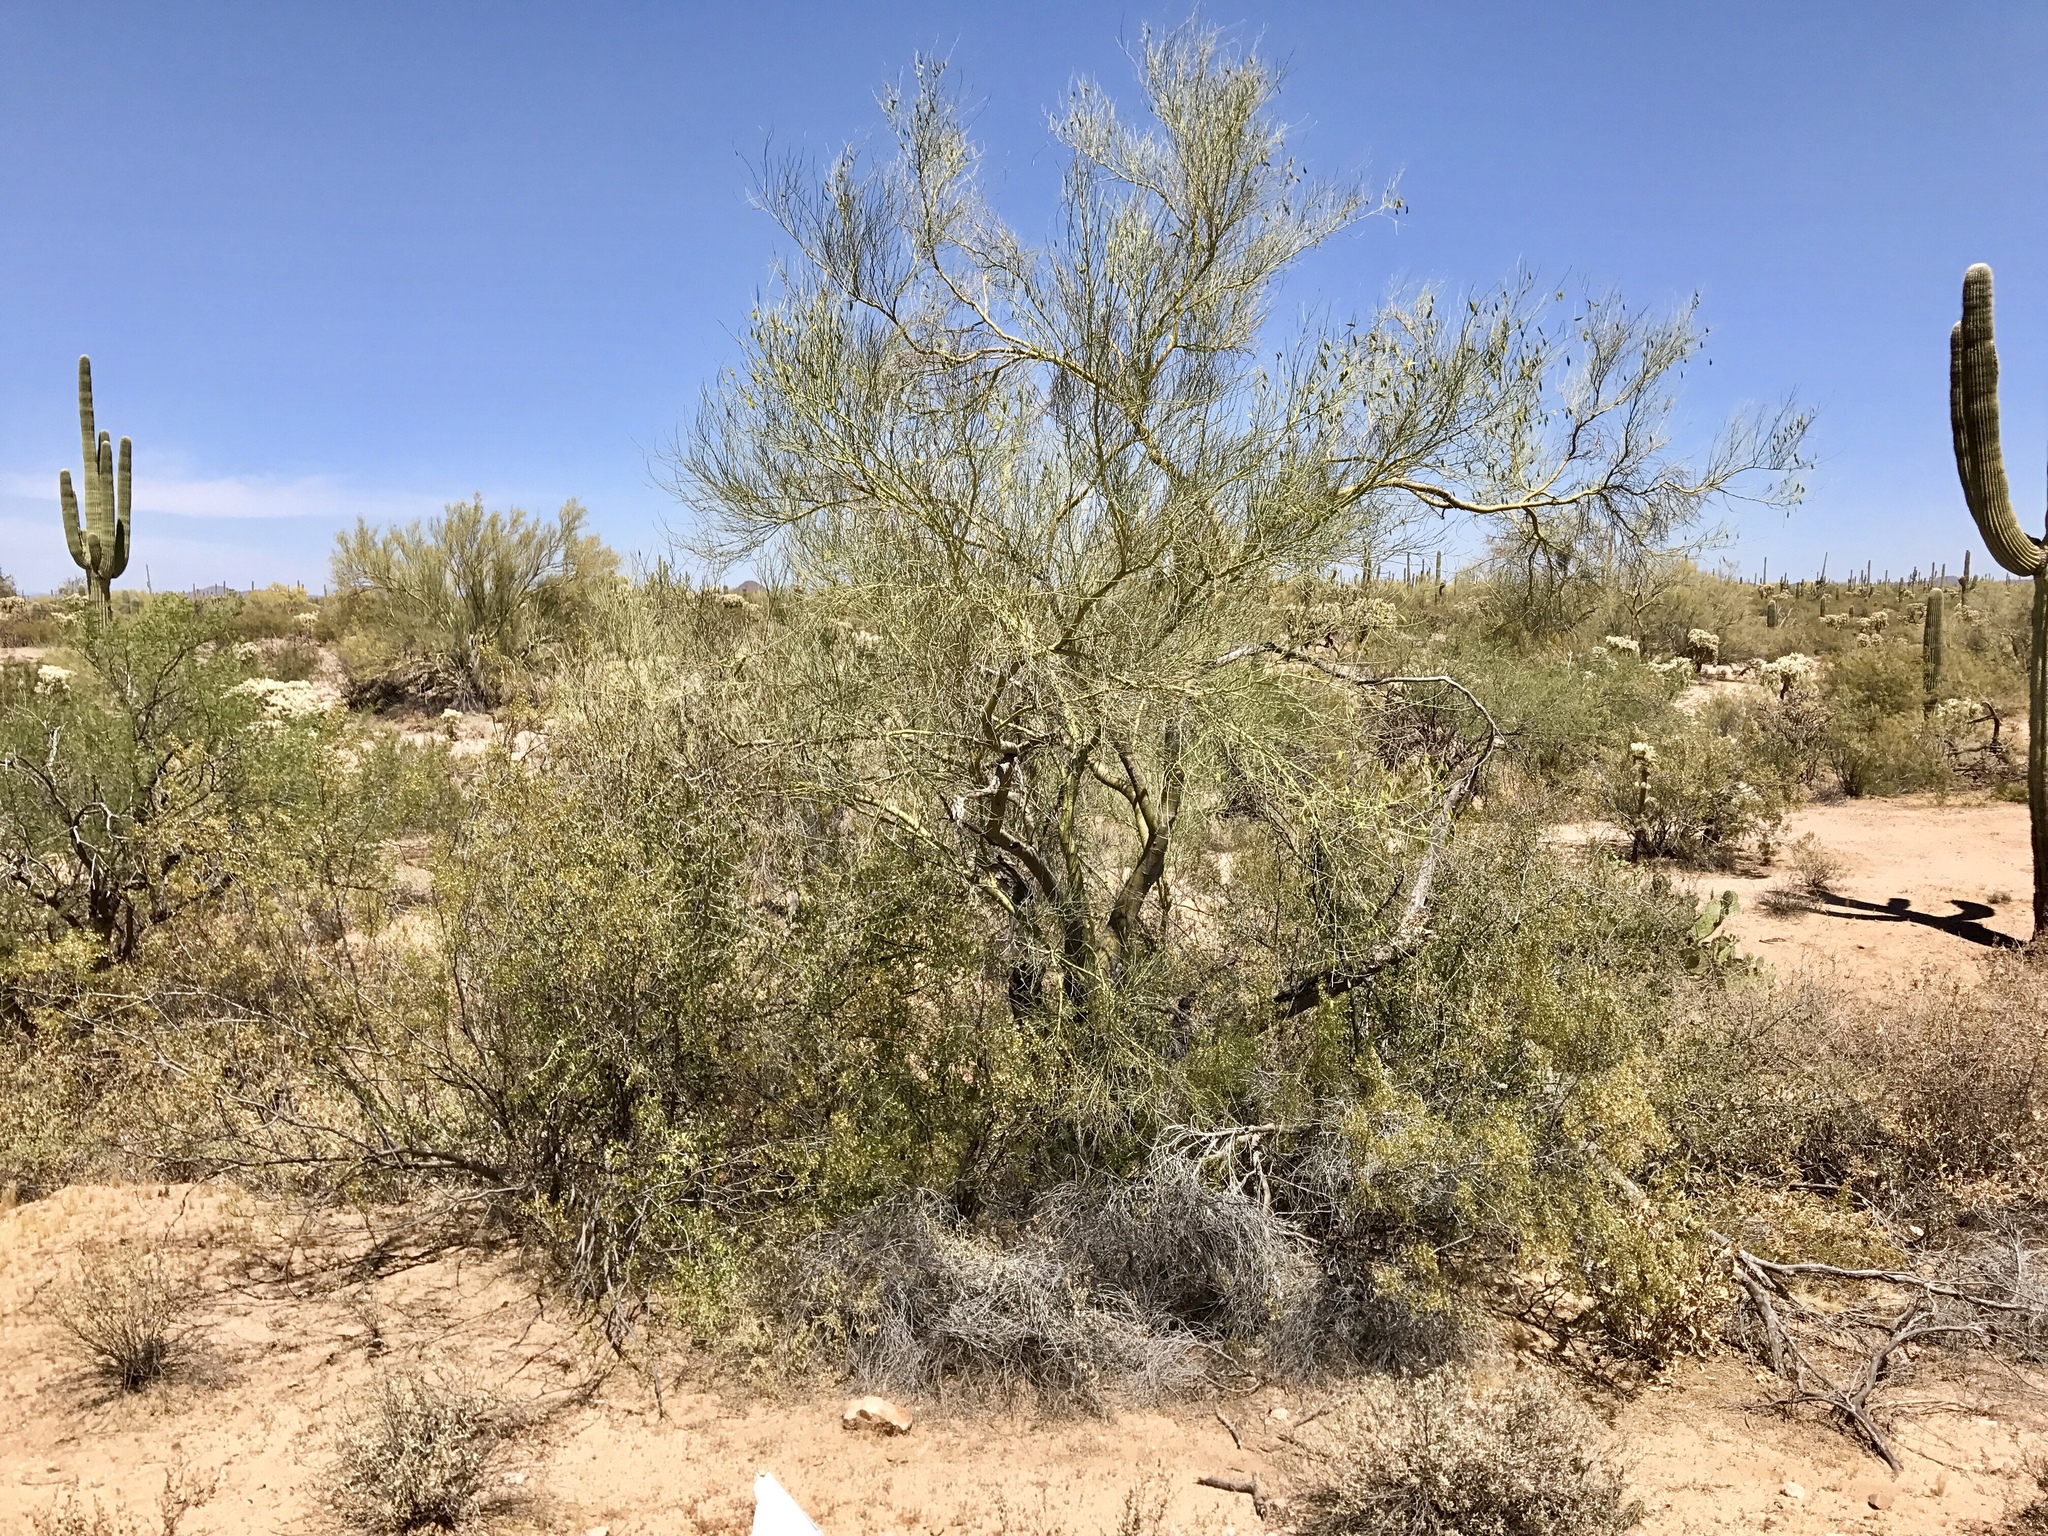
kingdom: Plantae
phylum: Tracheophyta
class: Magnoliopsida
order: Fabales
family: Fabaceae
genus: Parkinsonia
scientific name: Parkinsonia florida
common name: Blue paloverde
